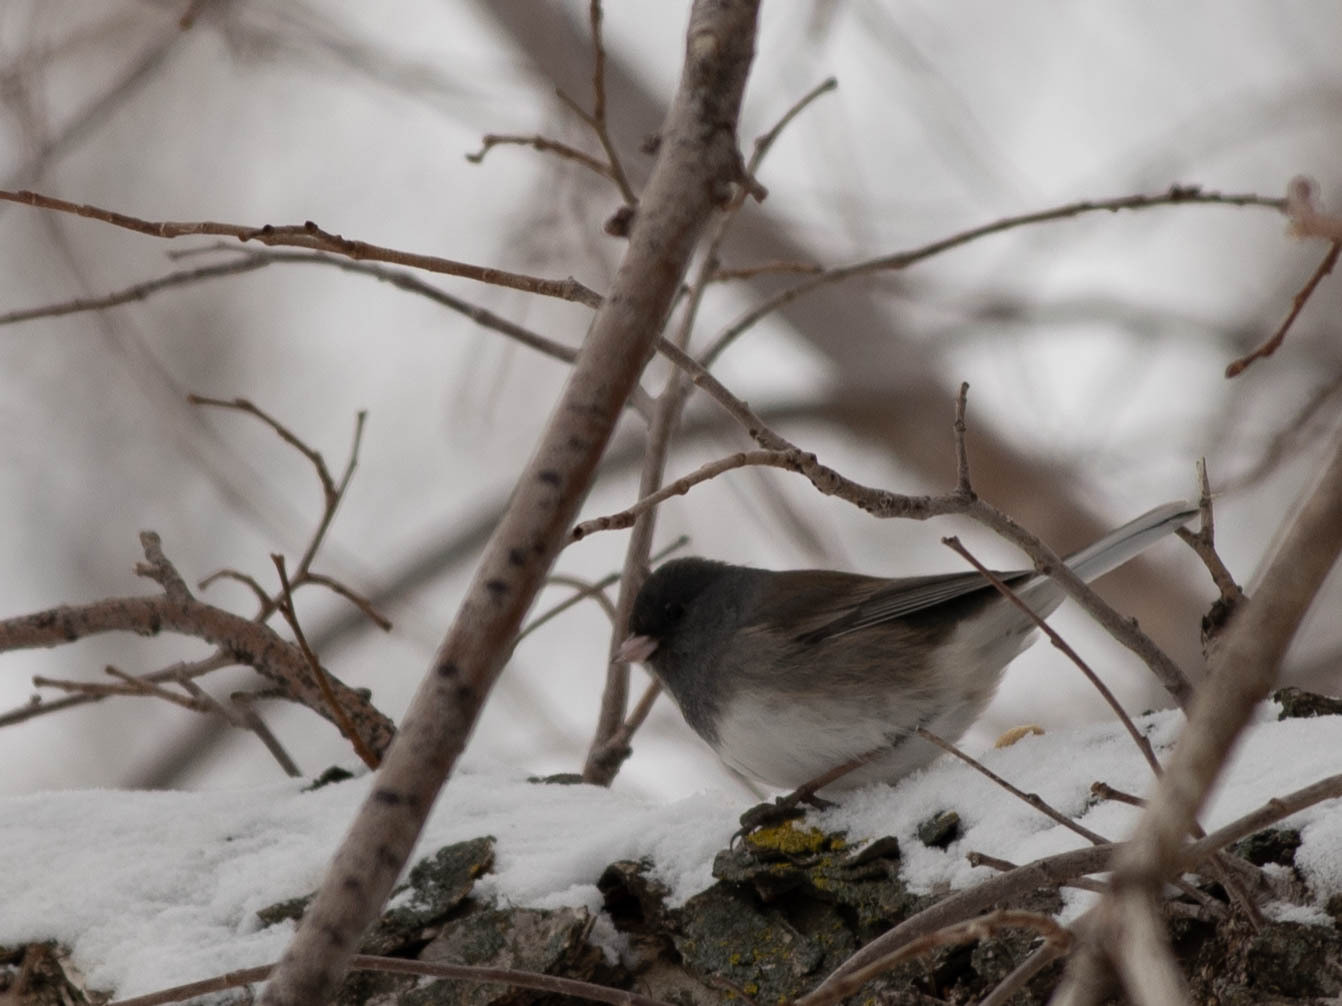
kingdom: Animalia
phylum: Chordata
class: Aves
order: Passeriformes
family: Passerellidae
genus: Junco
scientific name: Junco hyemalis
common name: Dark-eyed junco
